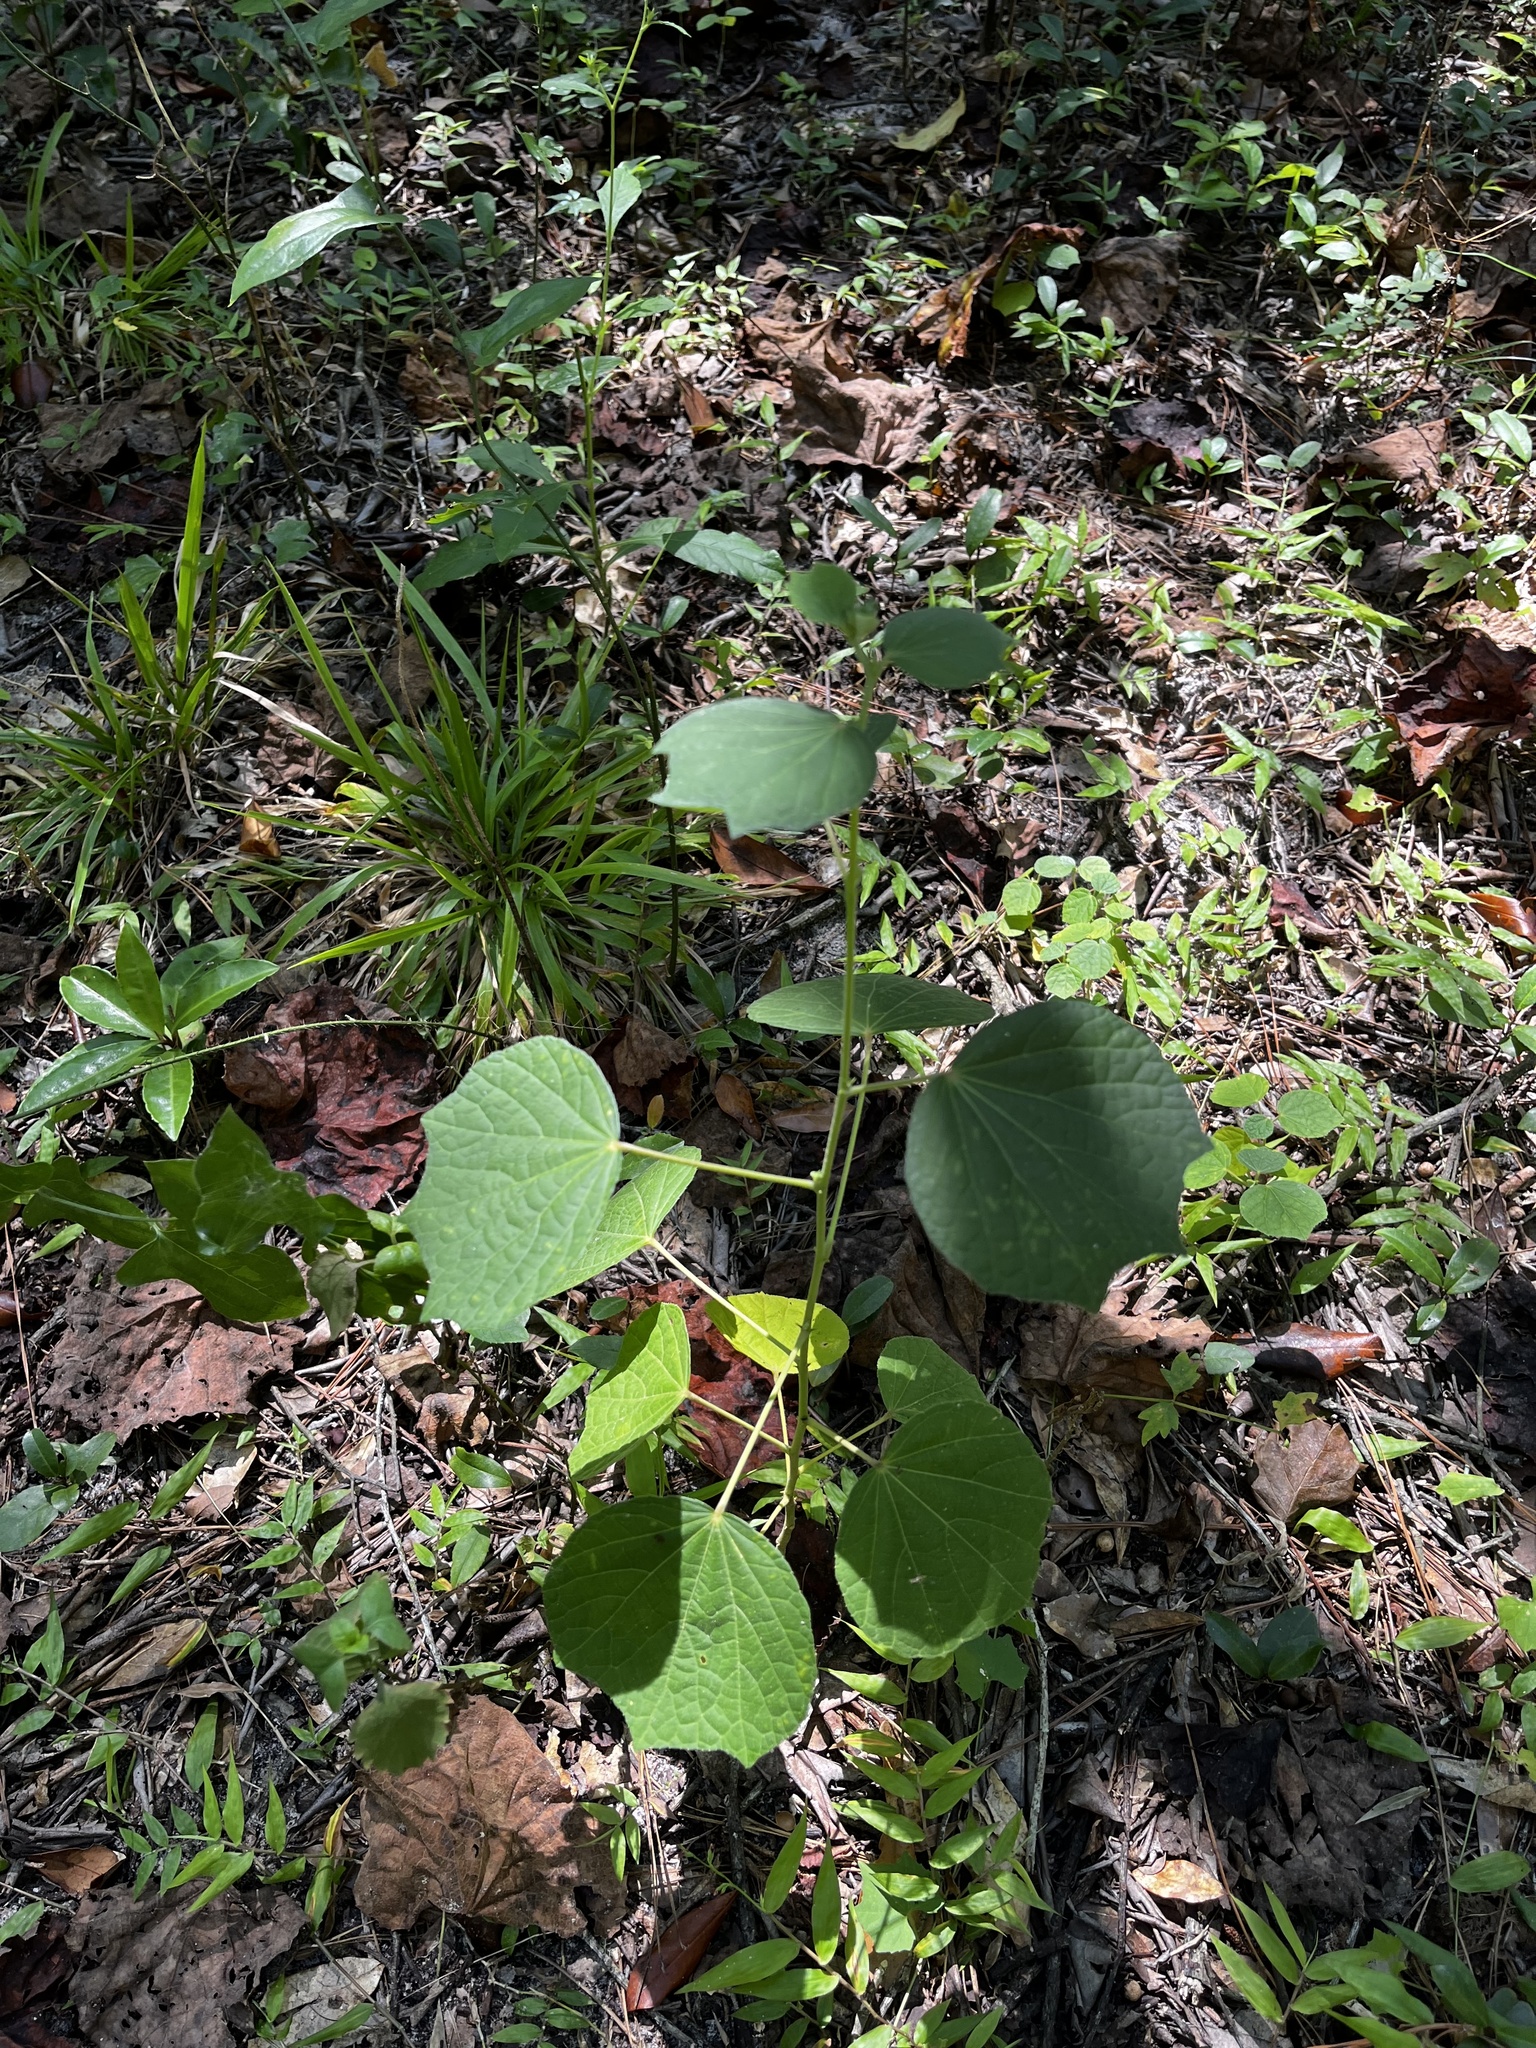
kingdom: Plantae
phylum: Tracheophyta
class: Magnoliopsida
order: Malvales
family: Malvaceae
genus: Urena
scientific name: Urena lobata
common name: Caesarweed
